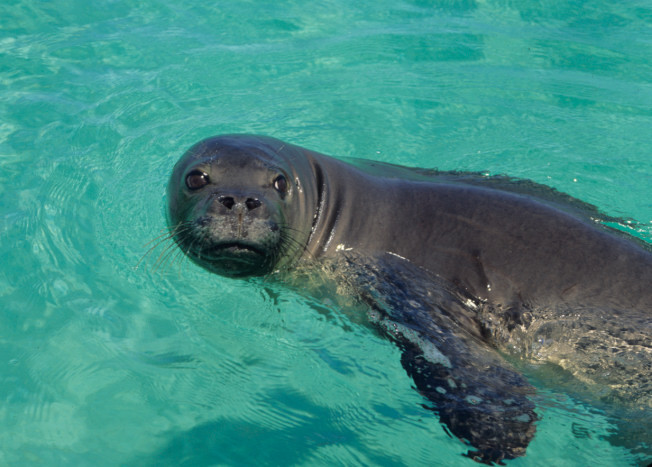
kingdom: Animalia
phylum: Chordata
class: Mammalia
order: Carnivora
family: Phocidae
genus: Neomonachus
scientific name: Neomonachus schauinslandi
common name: Hawaiian monk seal
